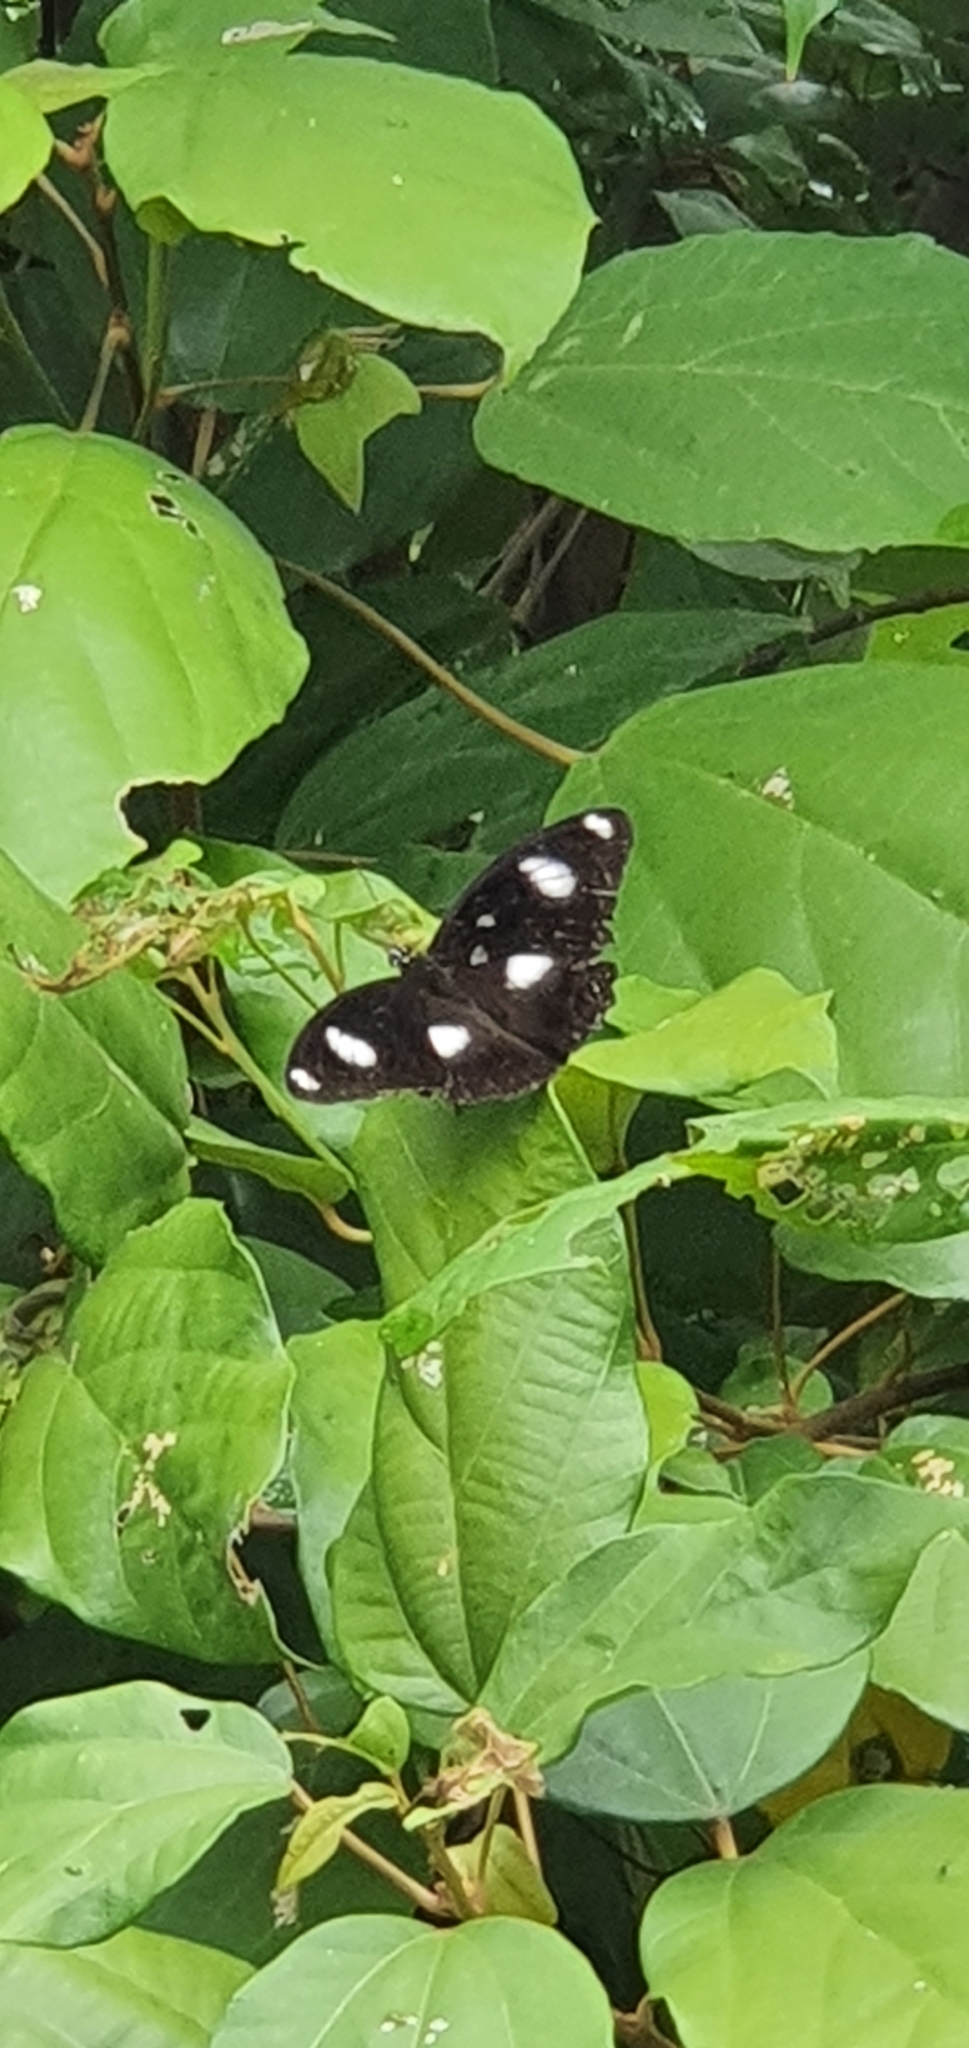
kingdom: Animalia
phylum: Arthropoda
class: Insecta
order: Lepidoptera
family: Nymphalidae
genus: Hypolimnas
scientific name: Hypolimnas bolina
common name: Great eggfly
